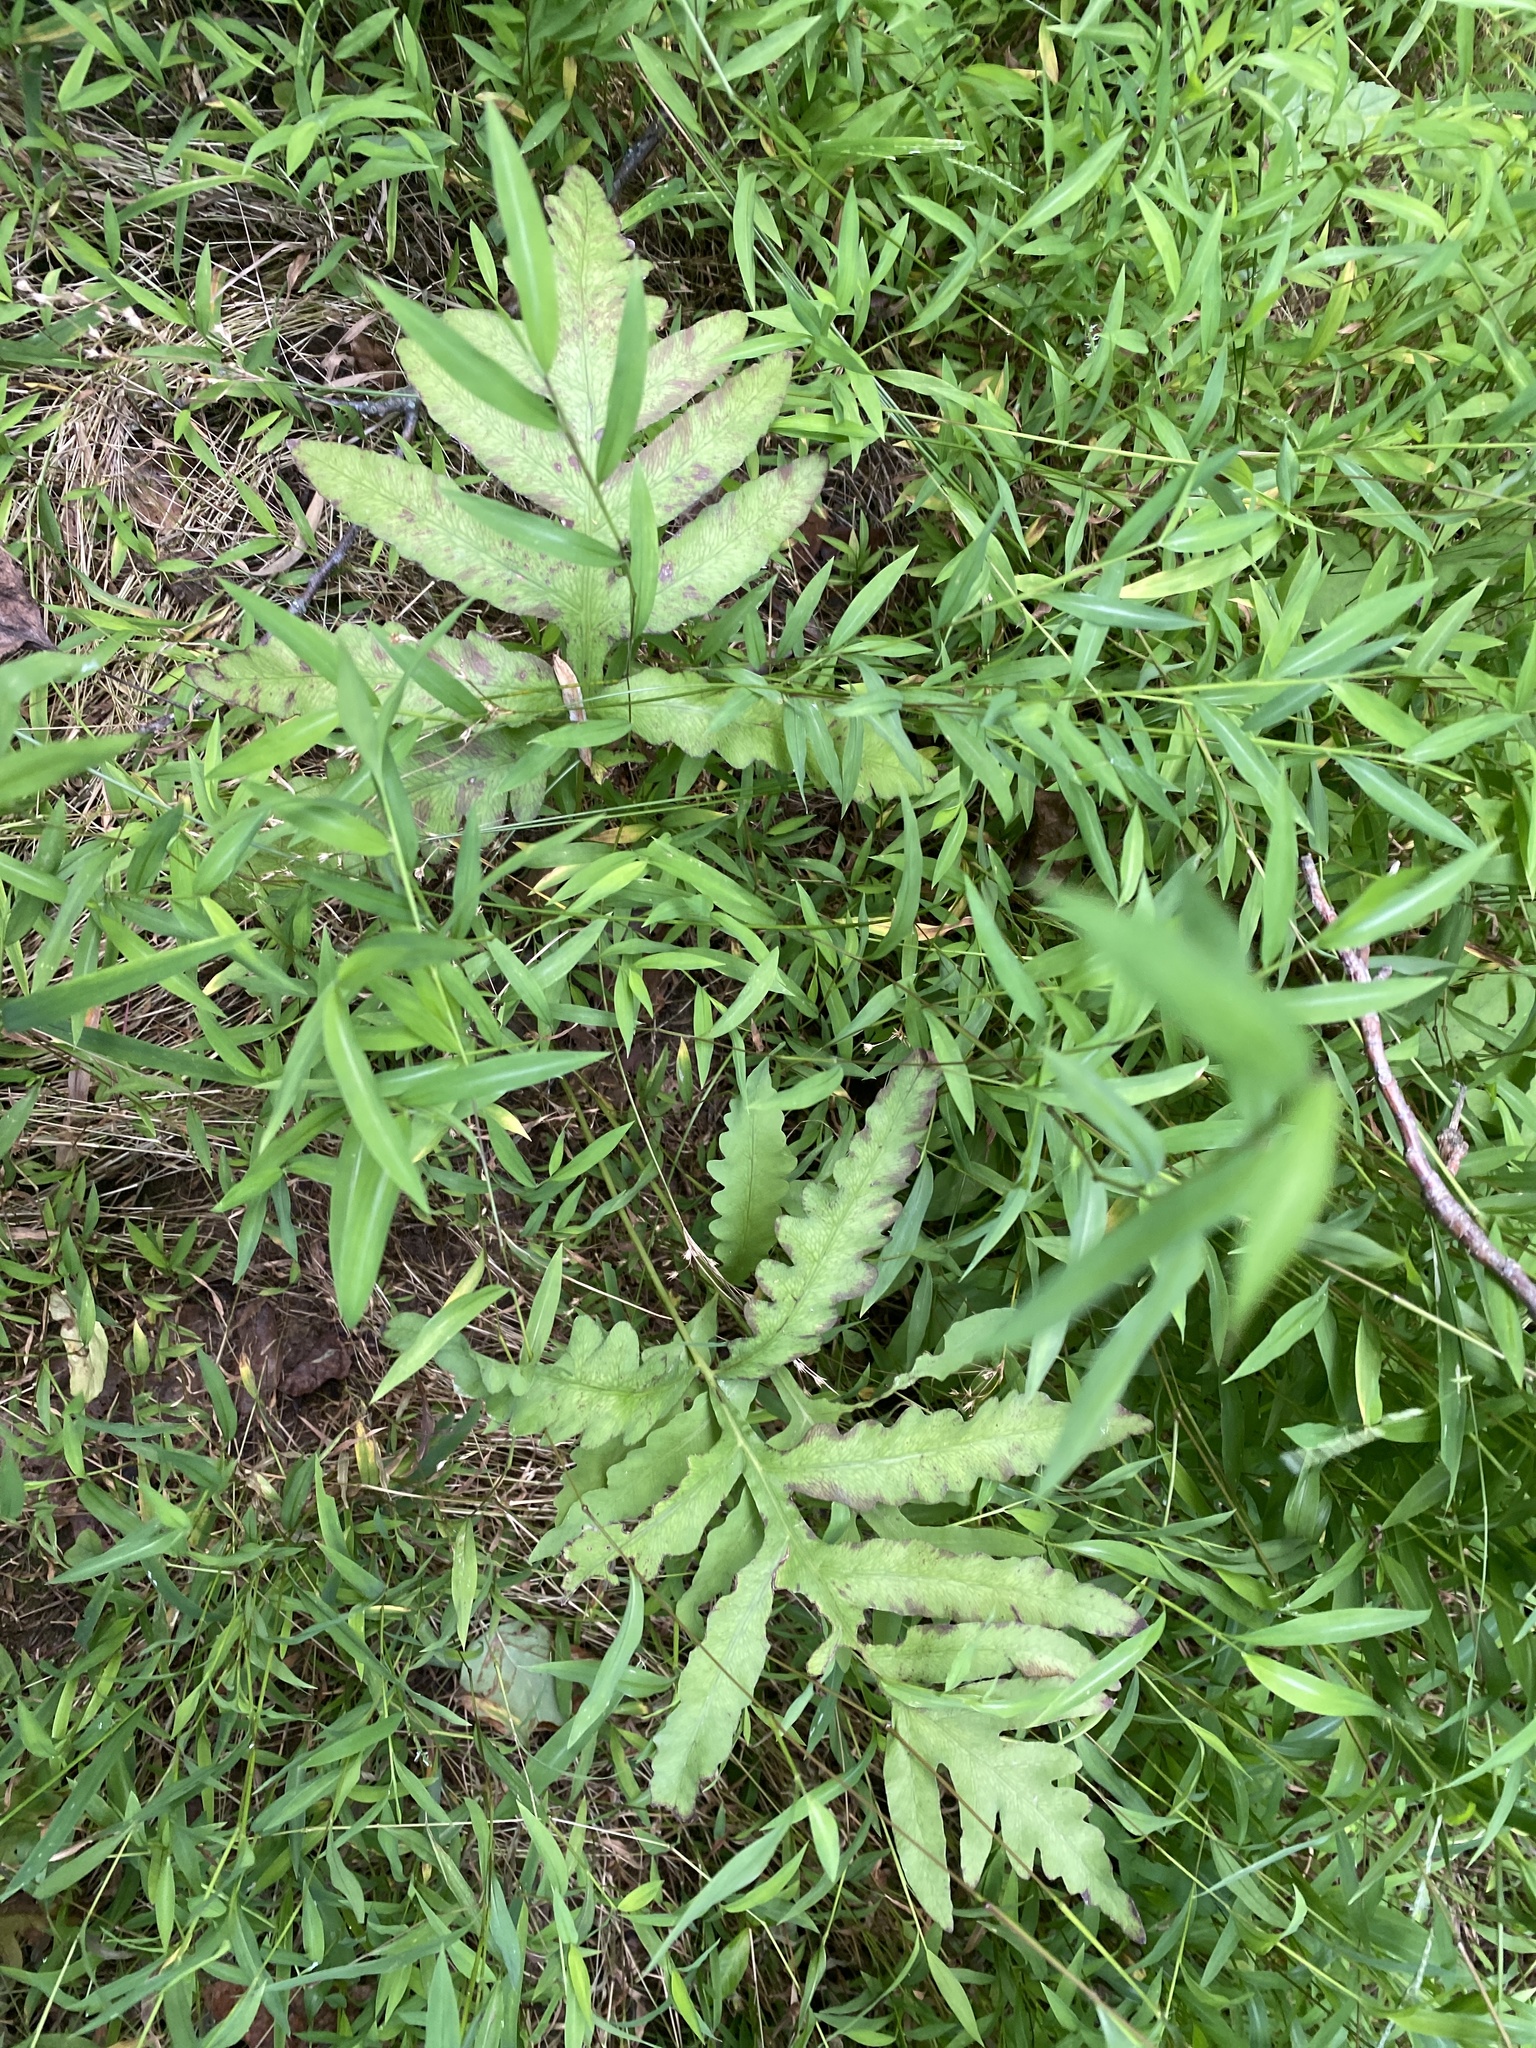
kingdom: Plantae
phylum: Tracheophyta
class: Polypodiopsida
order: Polypodiales
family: Onocleaceae
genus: Onoclea
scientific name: Onoclea sensibilis
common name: Sensitive fern
